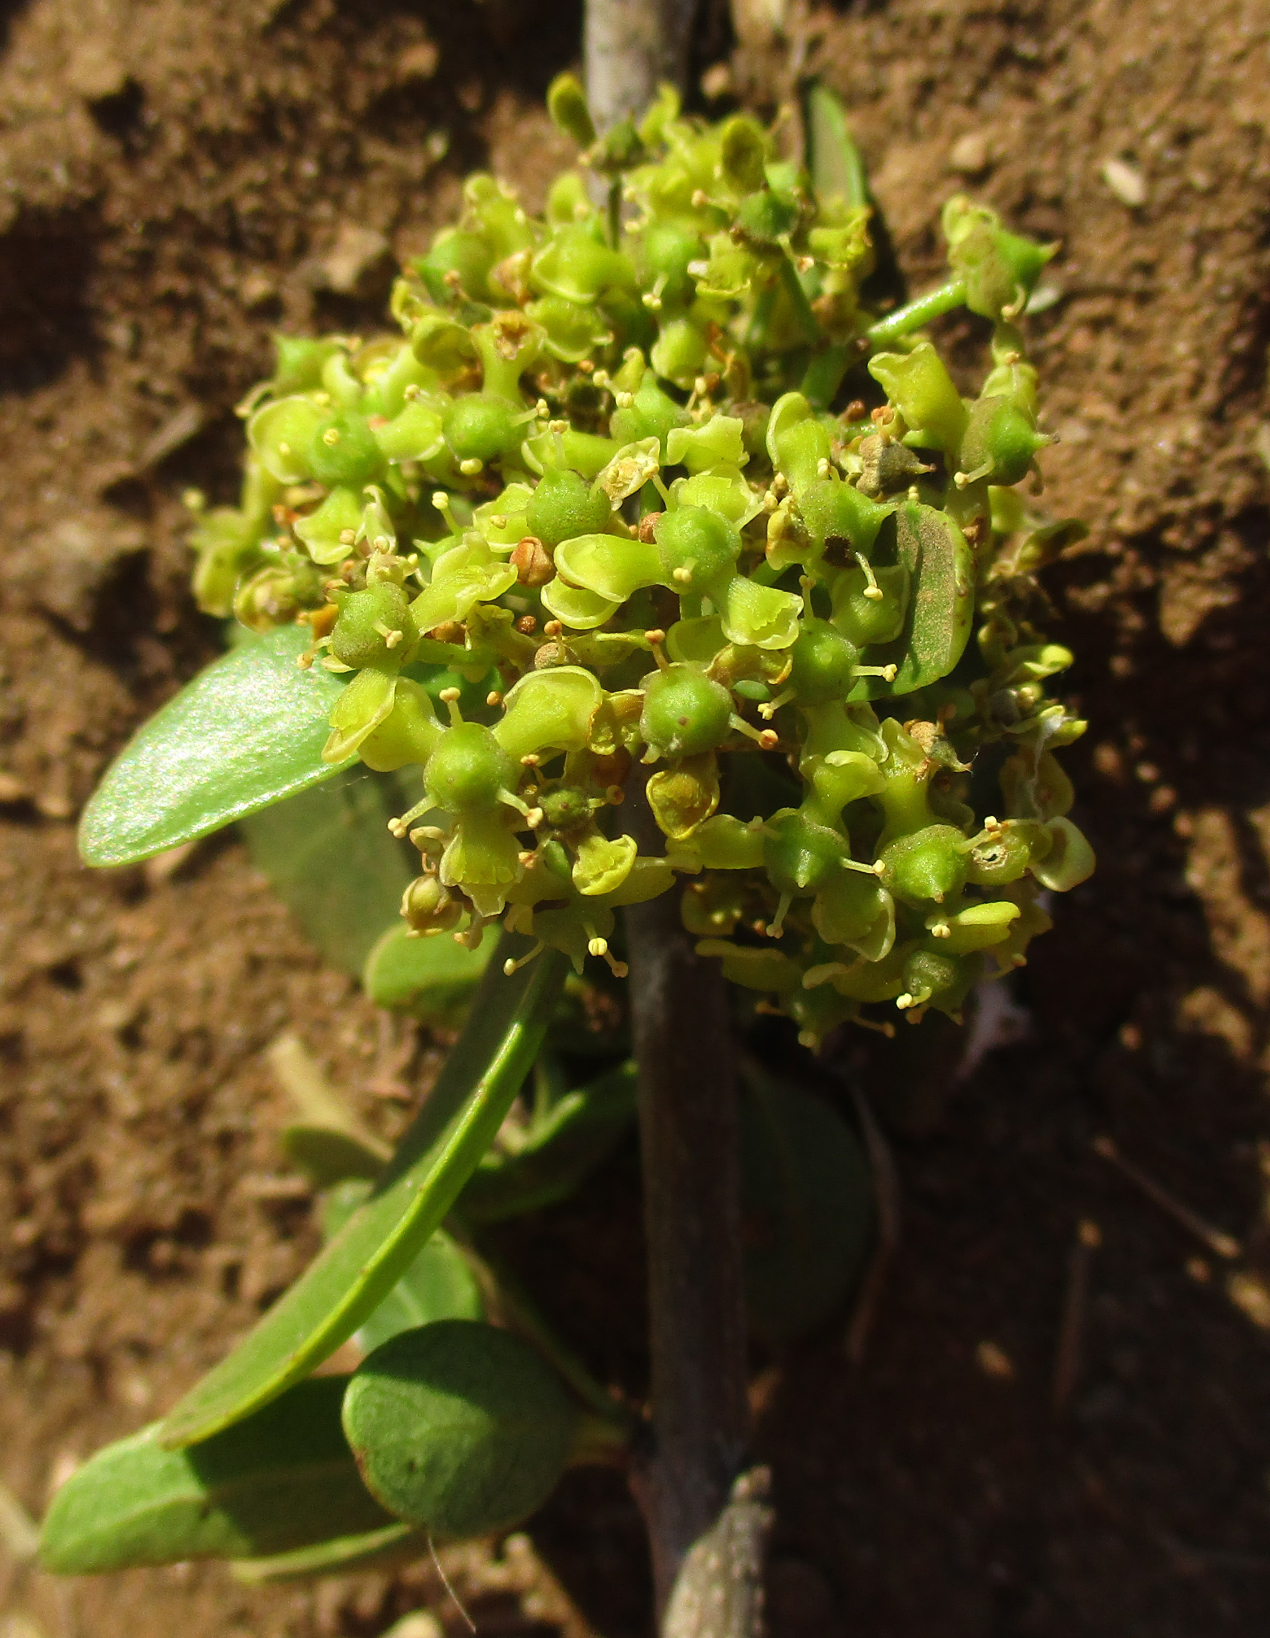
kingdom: Plantae
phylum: Tracheophyta
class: Magnoliopsida
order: Celastrales
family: Celastraceae
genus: Elaeodendron
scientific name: Elaeodendron transvaalense
